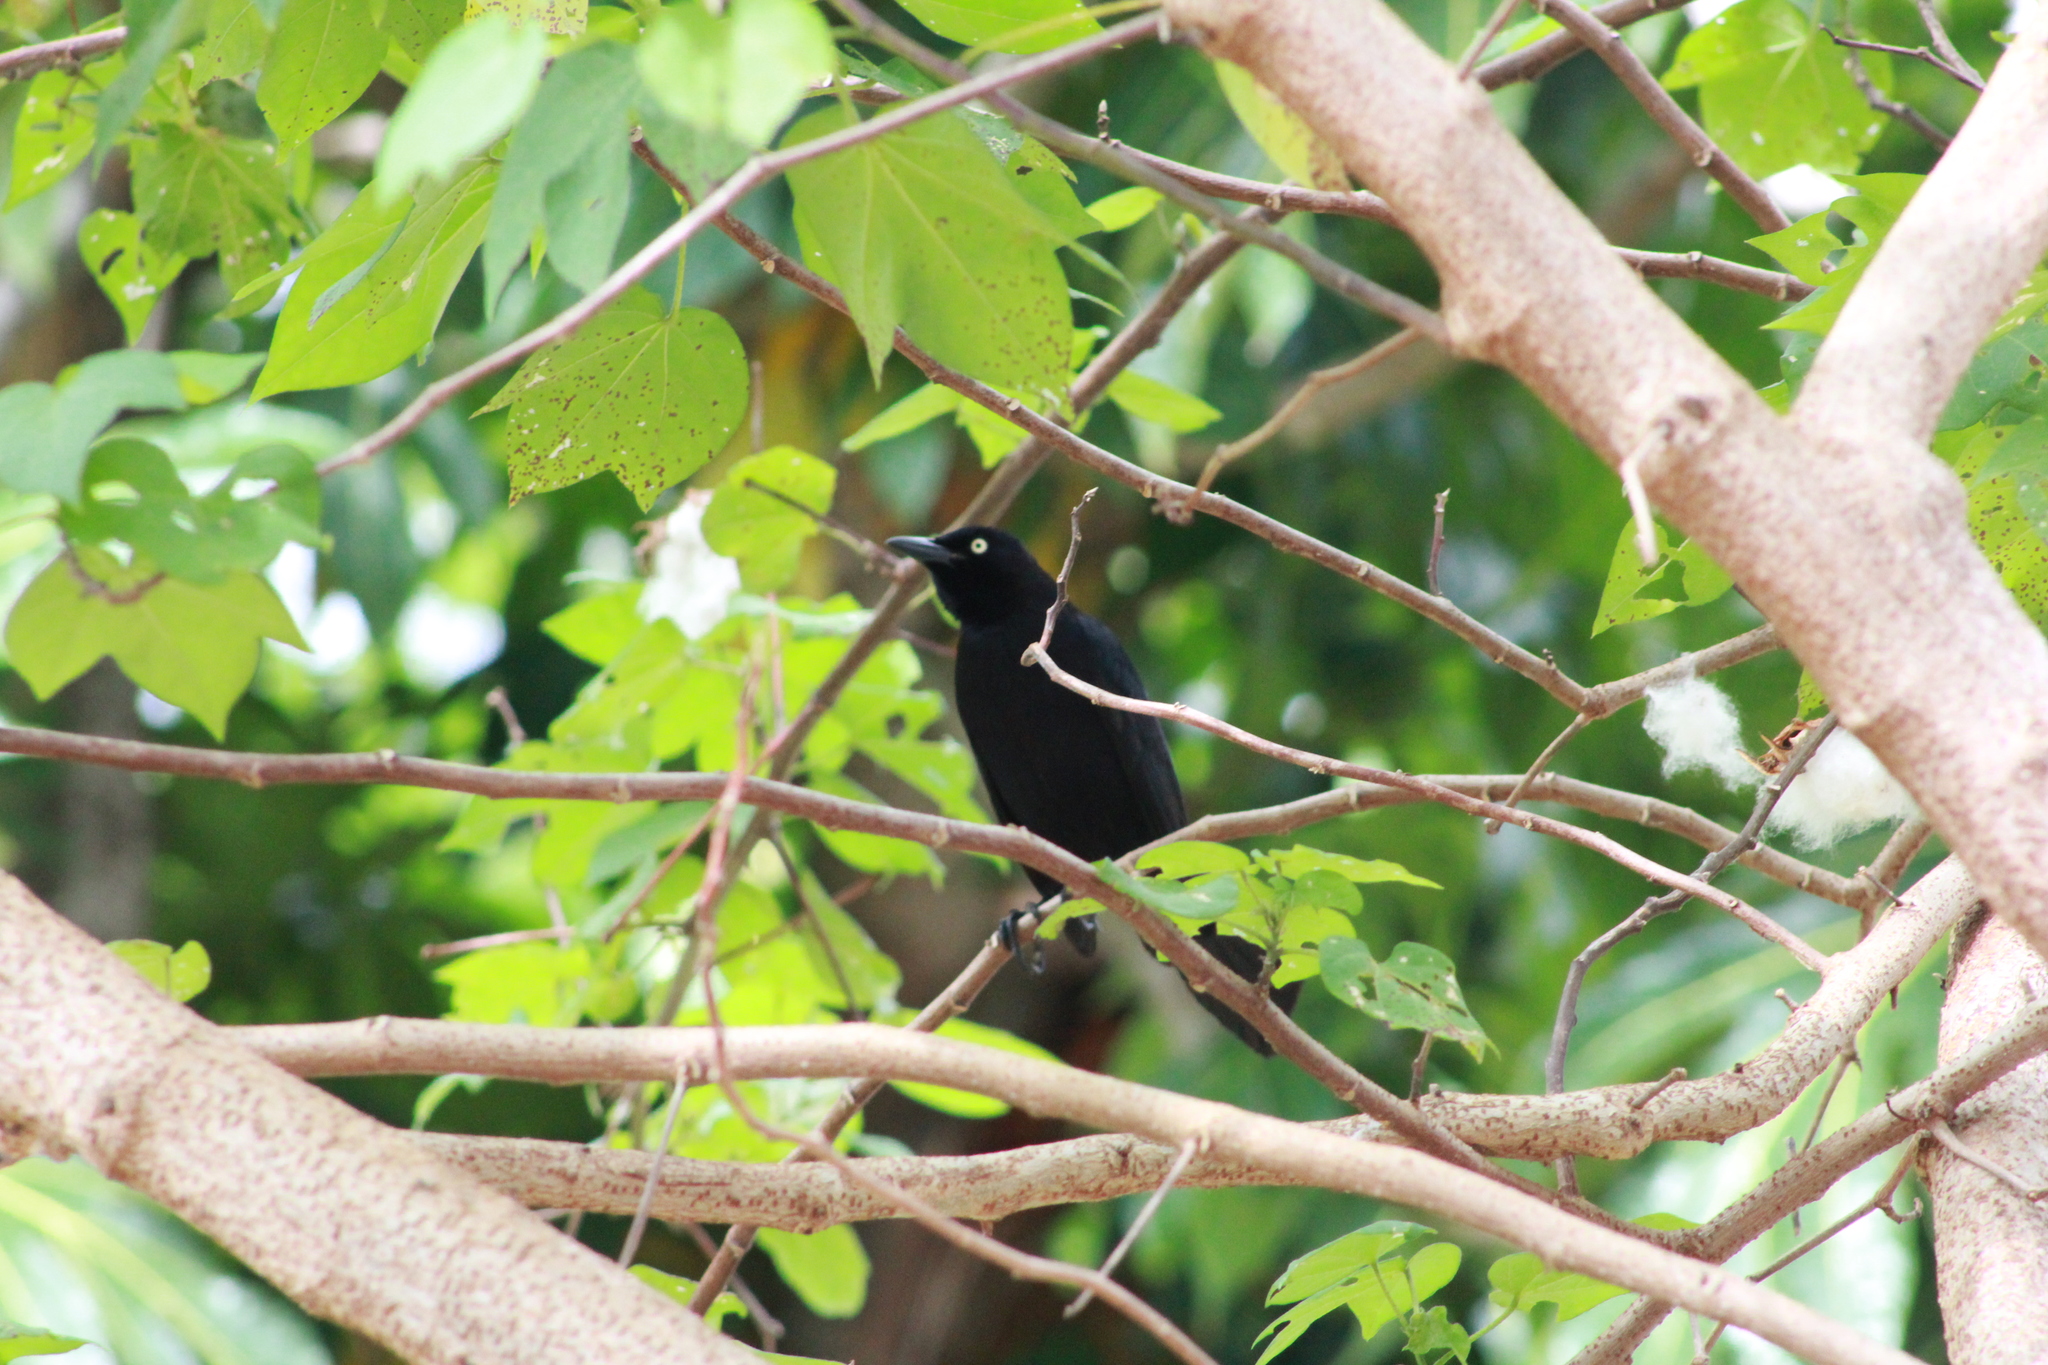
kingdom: Animalia
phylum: Chordata
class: Aves
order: Passeriformes
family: Icteridae
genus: Quiscalus
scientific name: Quiscalus lugubris
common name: Carib grackle
